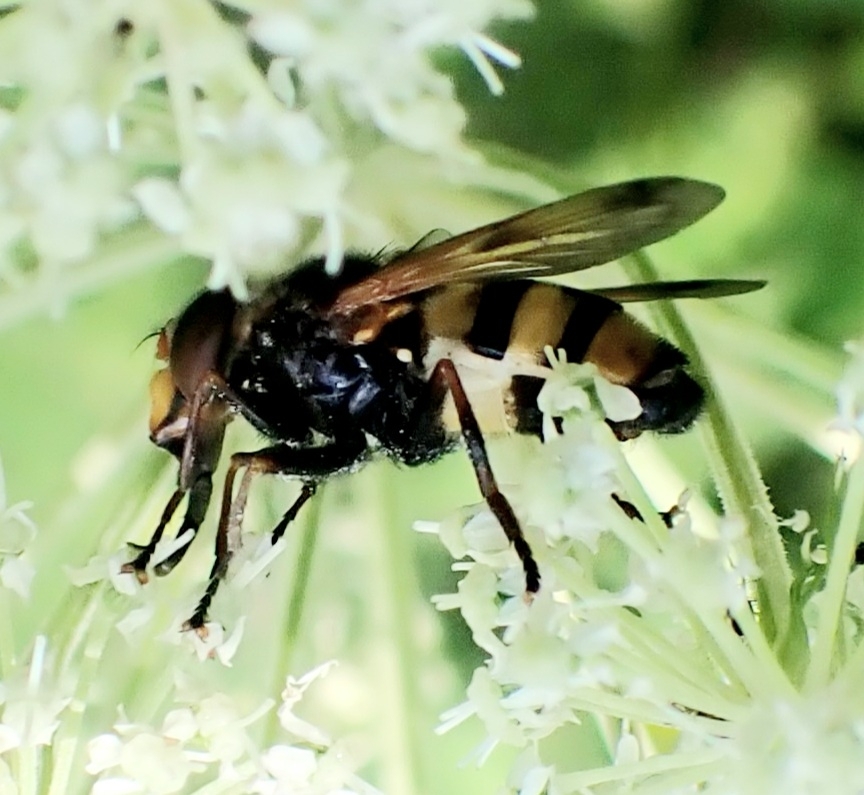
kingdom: Animalia
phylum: Arthropoda
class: Insecta
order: Diptera
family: Syrphidae
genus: Volucella
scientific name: Volucella inanis
